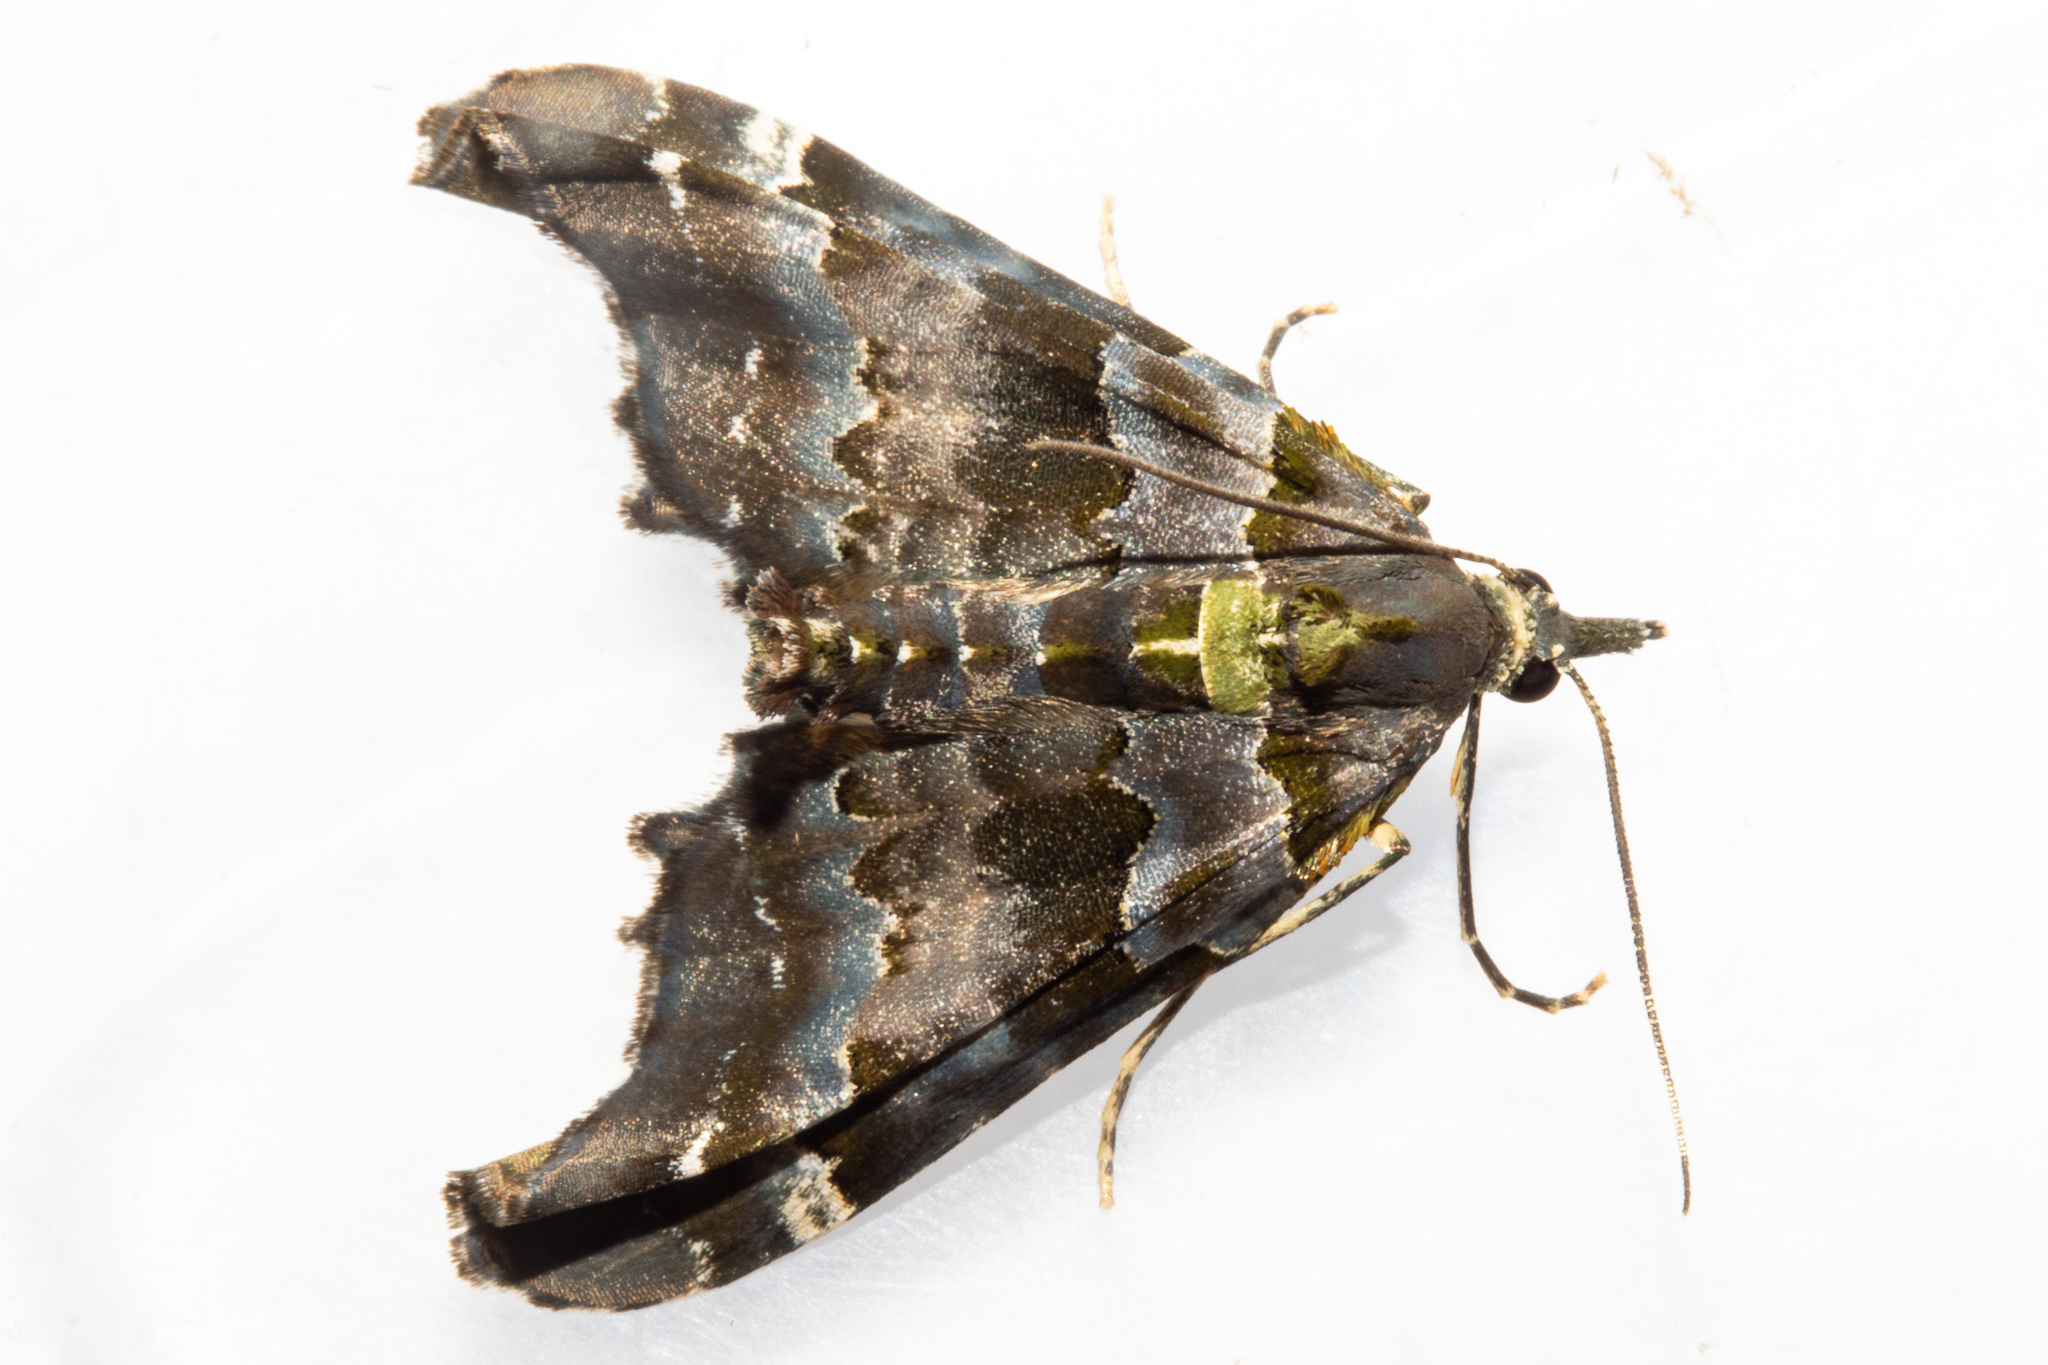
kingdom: Animalia
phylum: Arthropoda
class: Insecta
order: Lepidoptera
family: Geometridae
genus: Elvia
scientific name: Elvia glaucata
